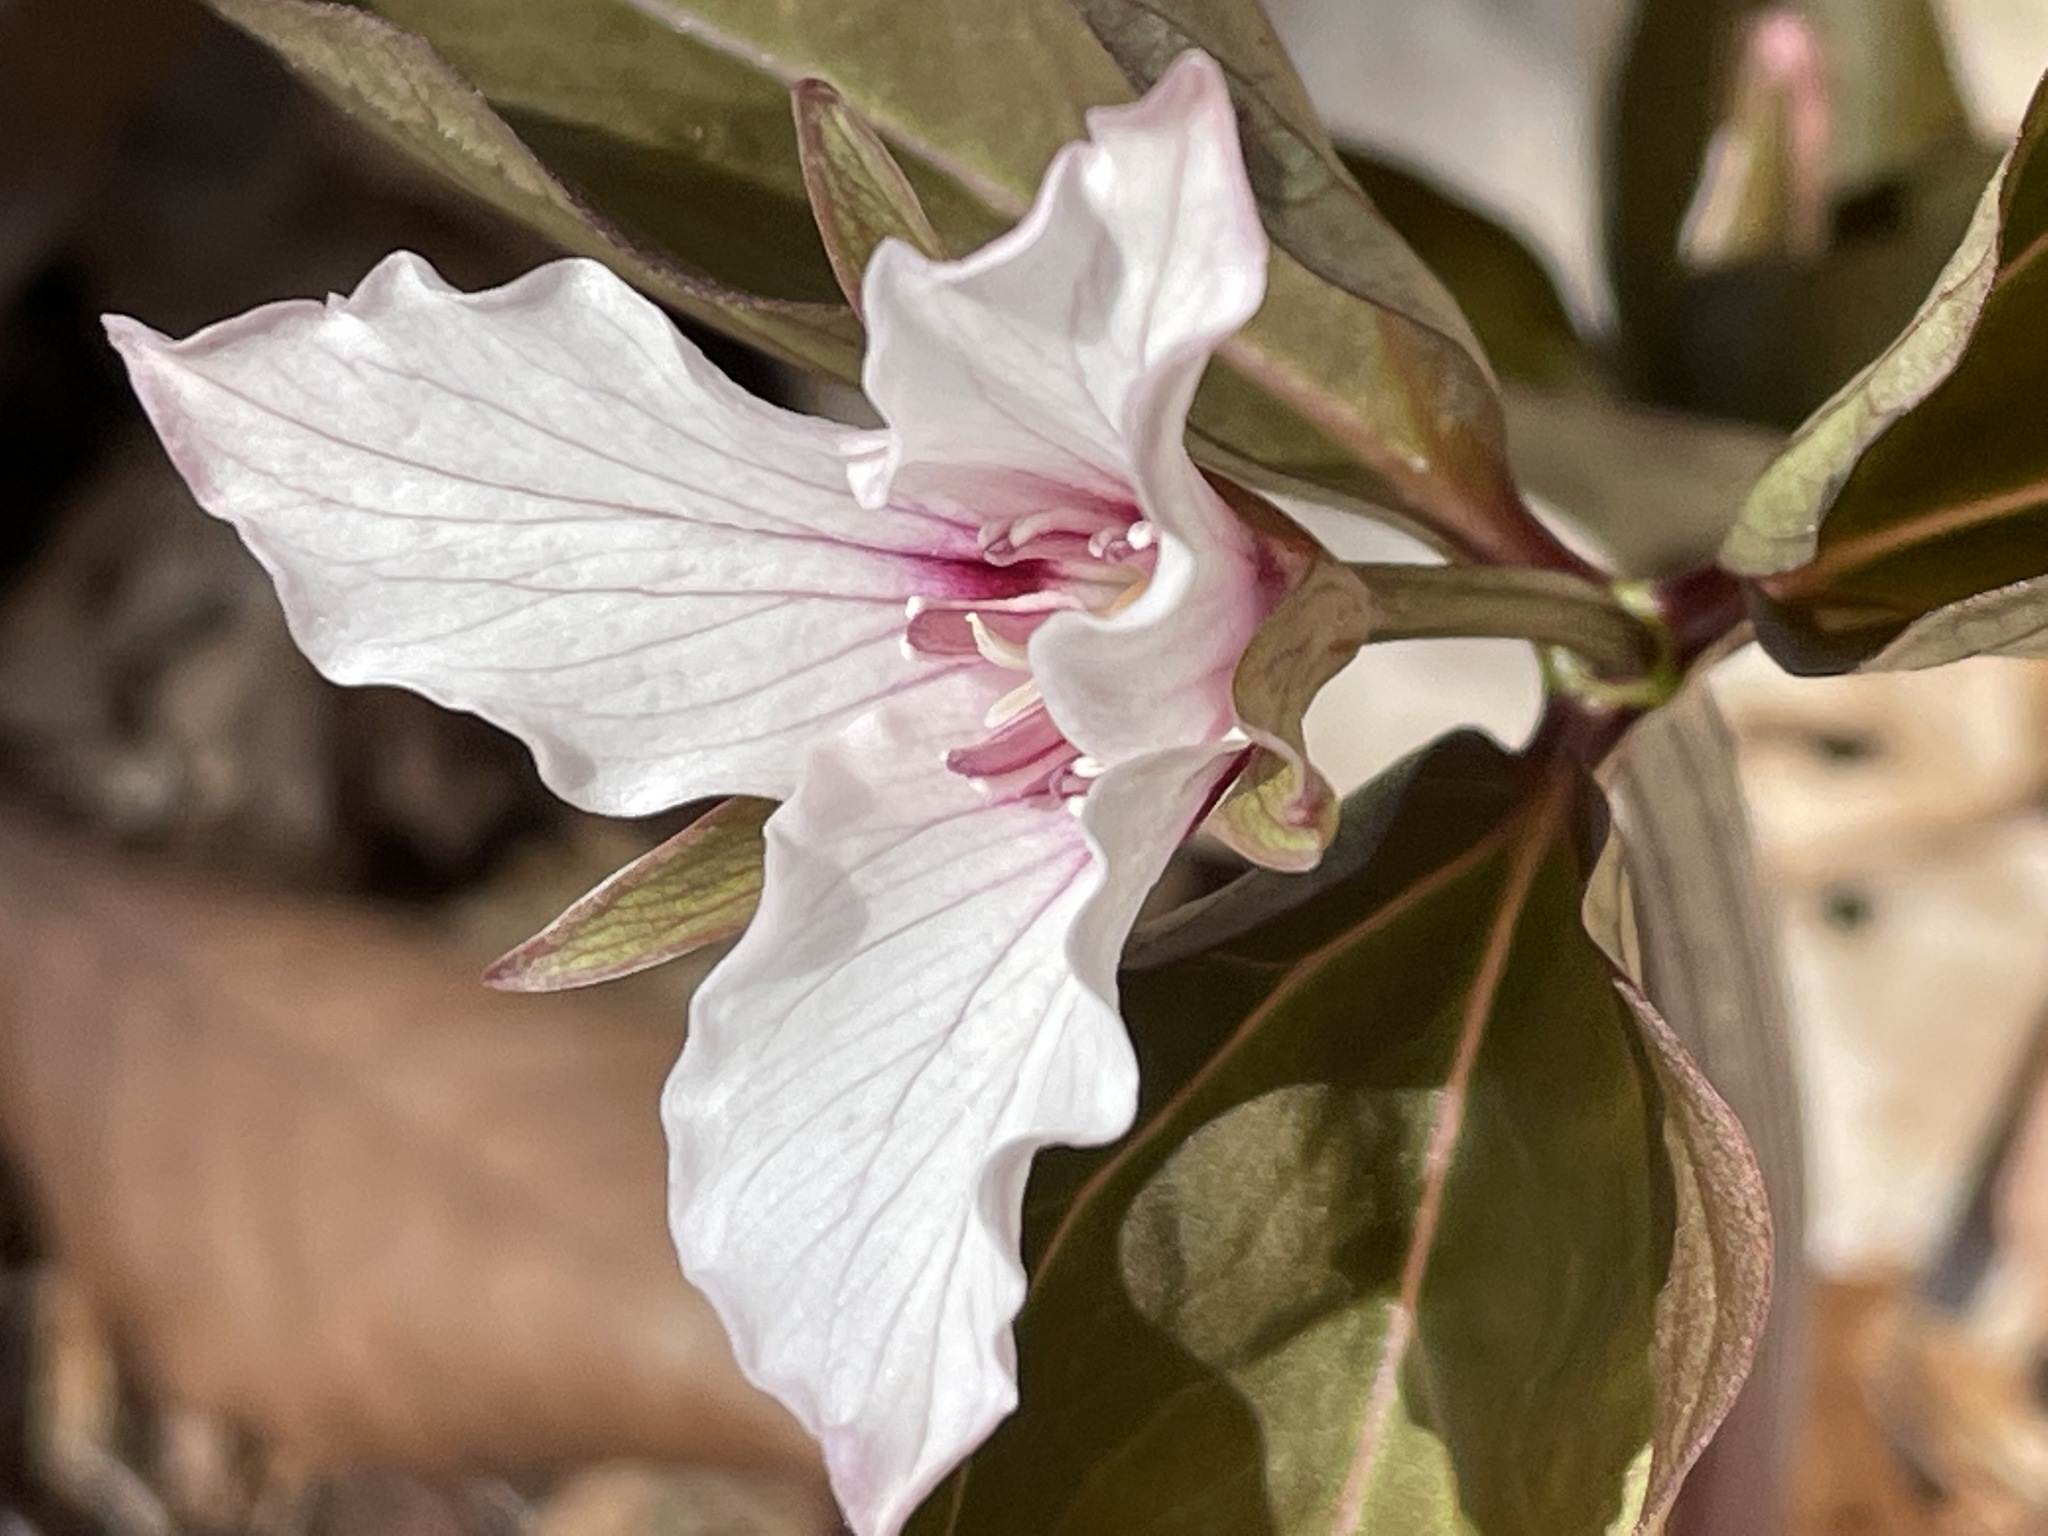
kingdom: Plantae
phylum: Tracheophyta
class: Liliopsida
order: Liliales
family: Melanthiaceae
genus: Trillium
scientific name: Trillium undulatum
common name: Paint trillium
